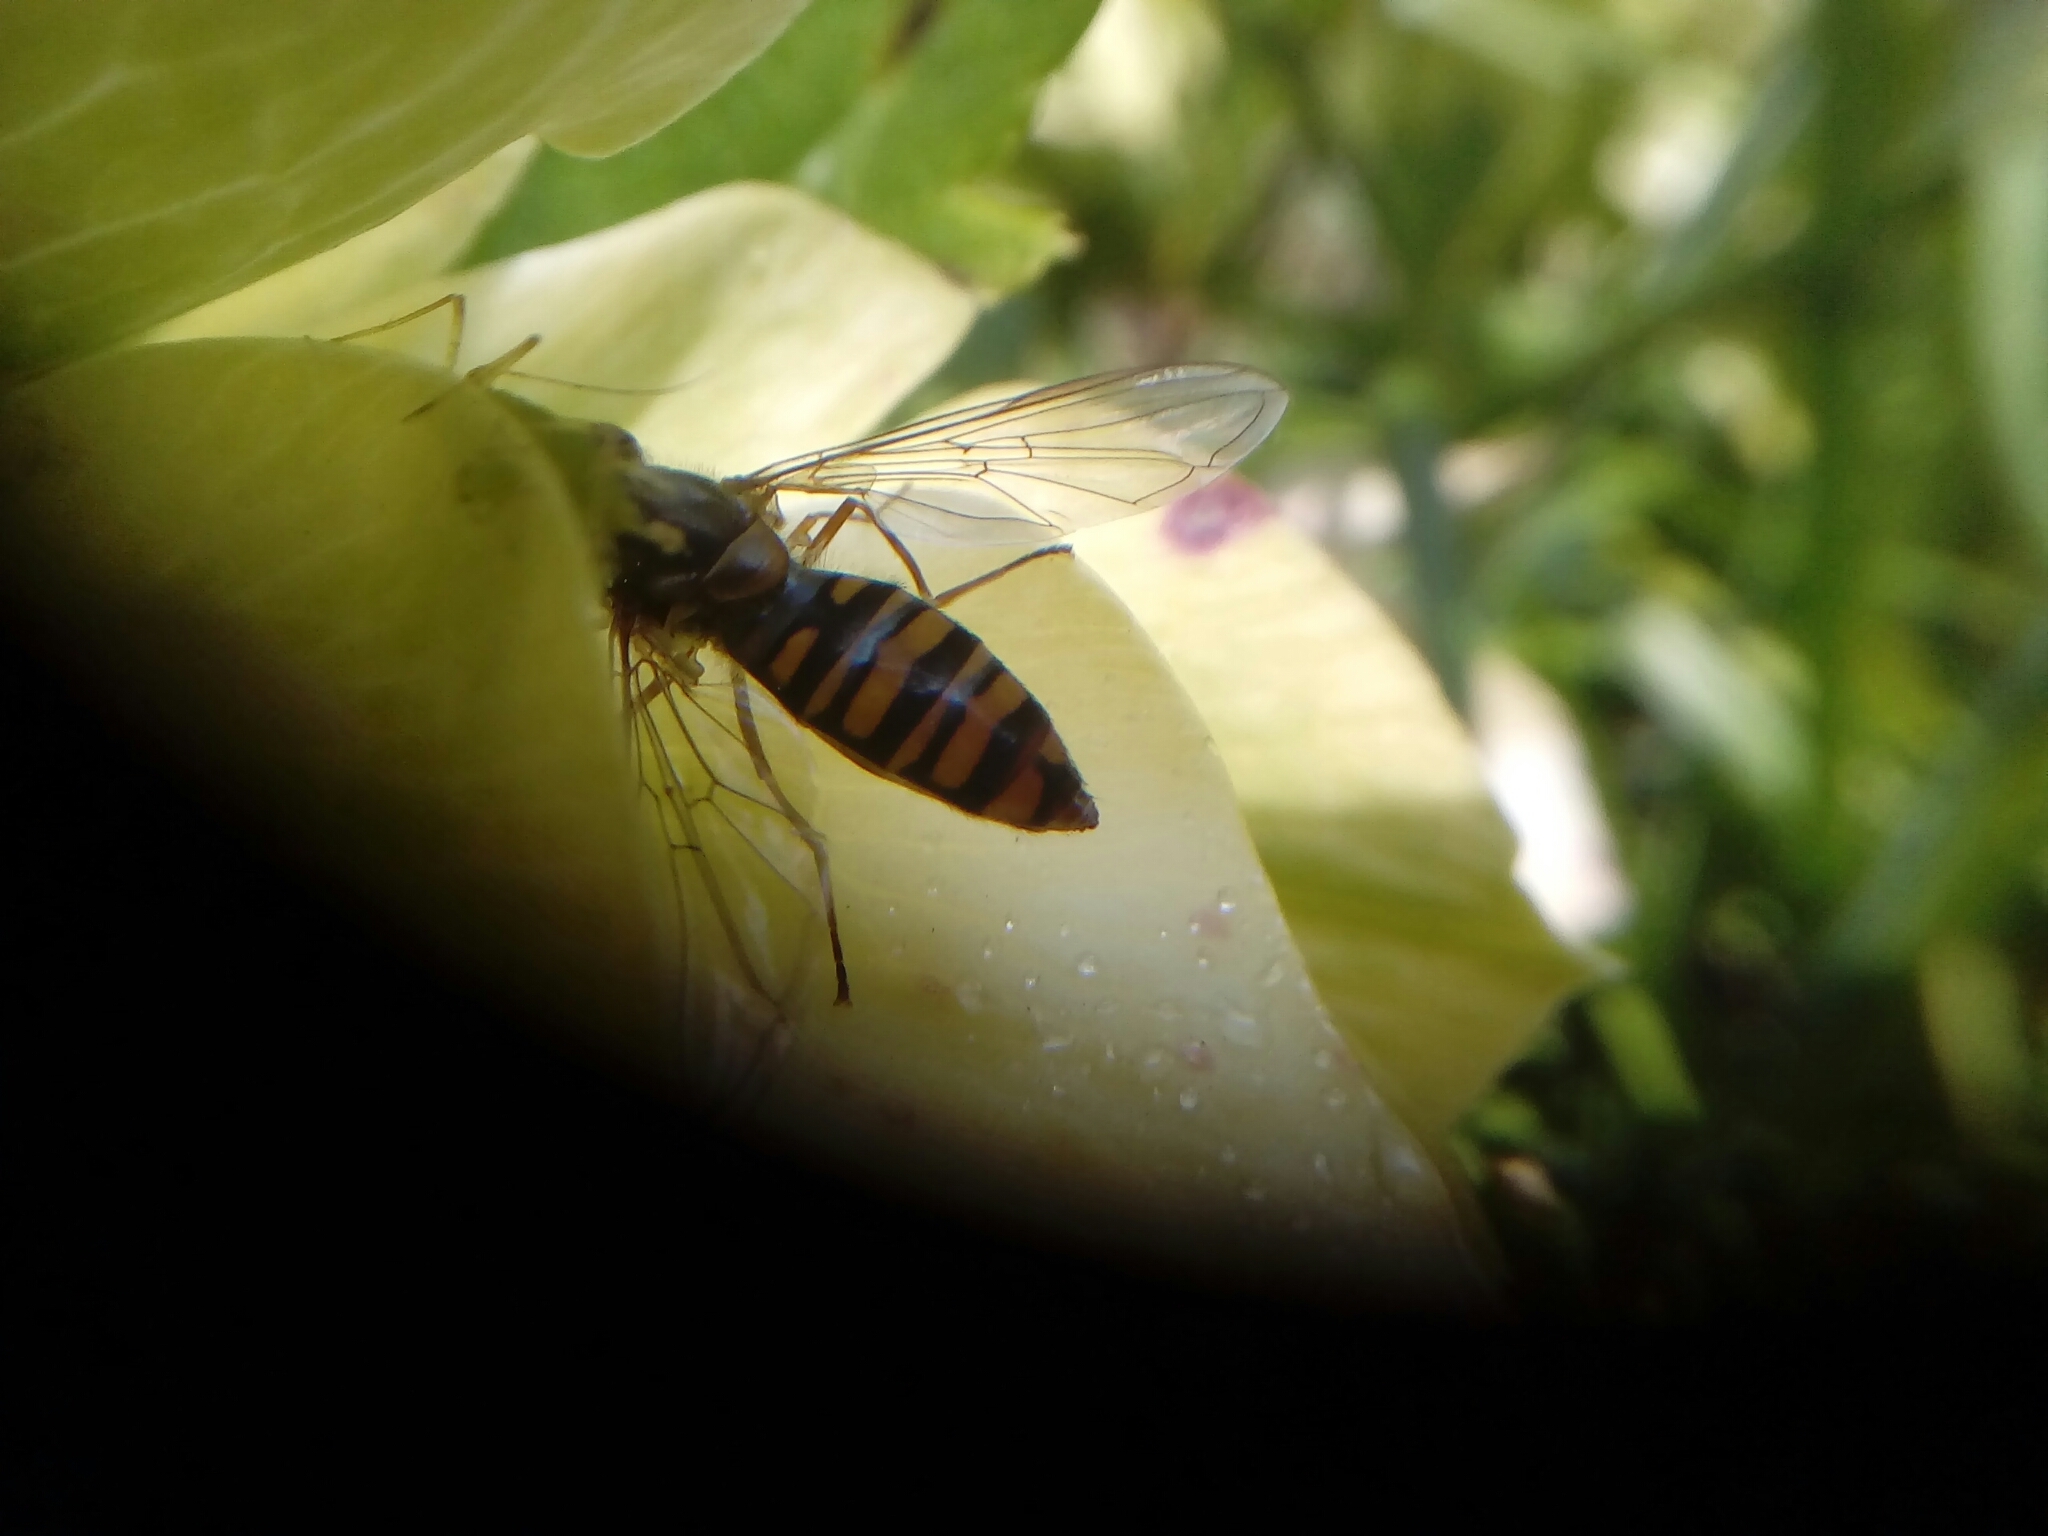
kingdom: Animalia
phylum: Arthropoda
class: Insecta
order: Diptera
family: Syrphidae
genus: Episyrphus
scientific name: Episyrphus balteatus
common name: Marmalade hoverfly
